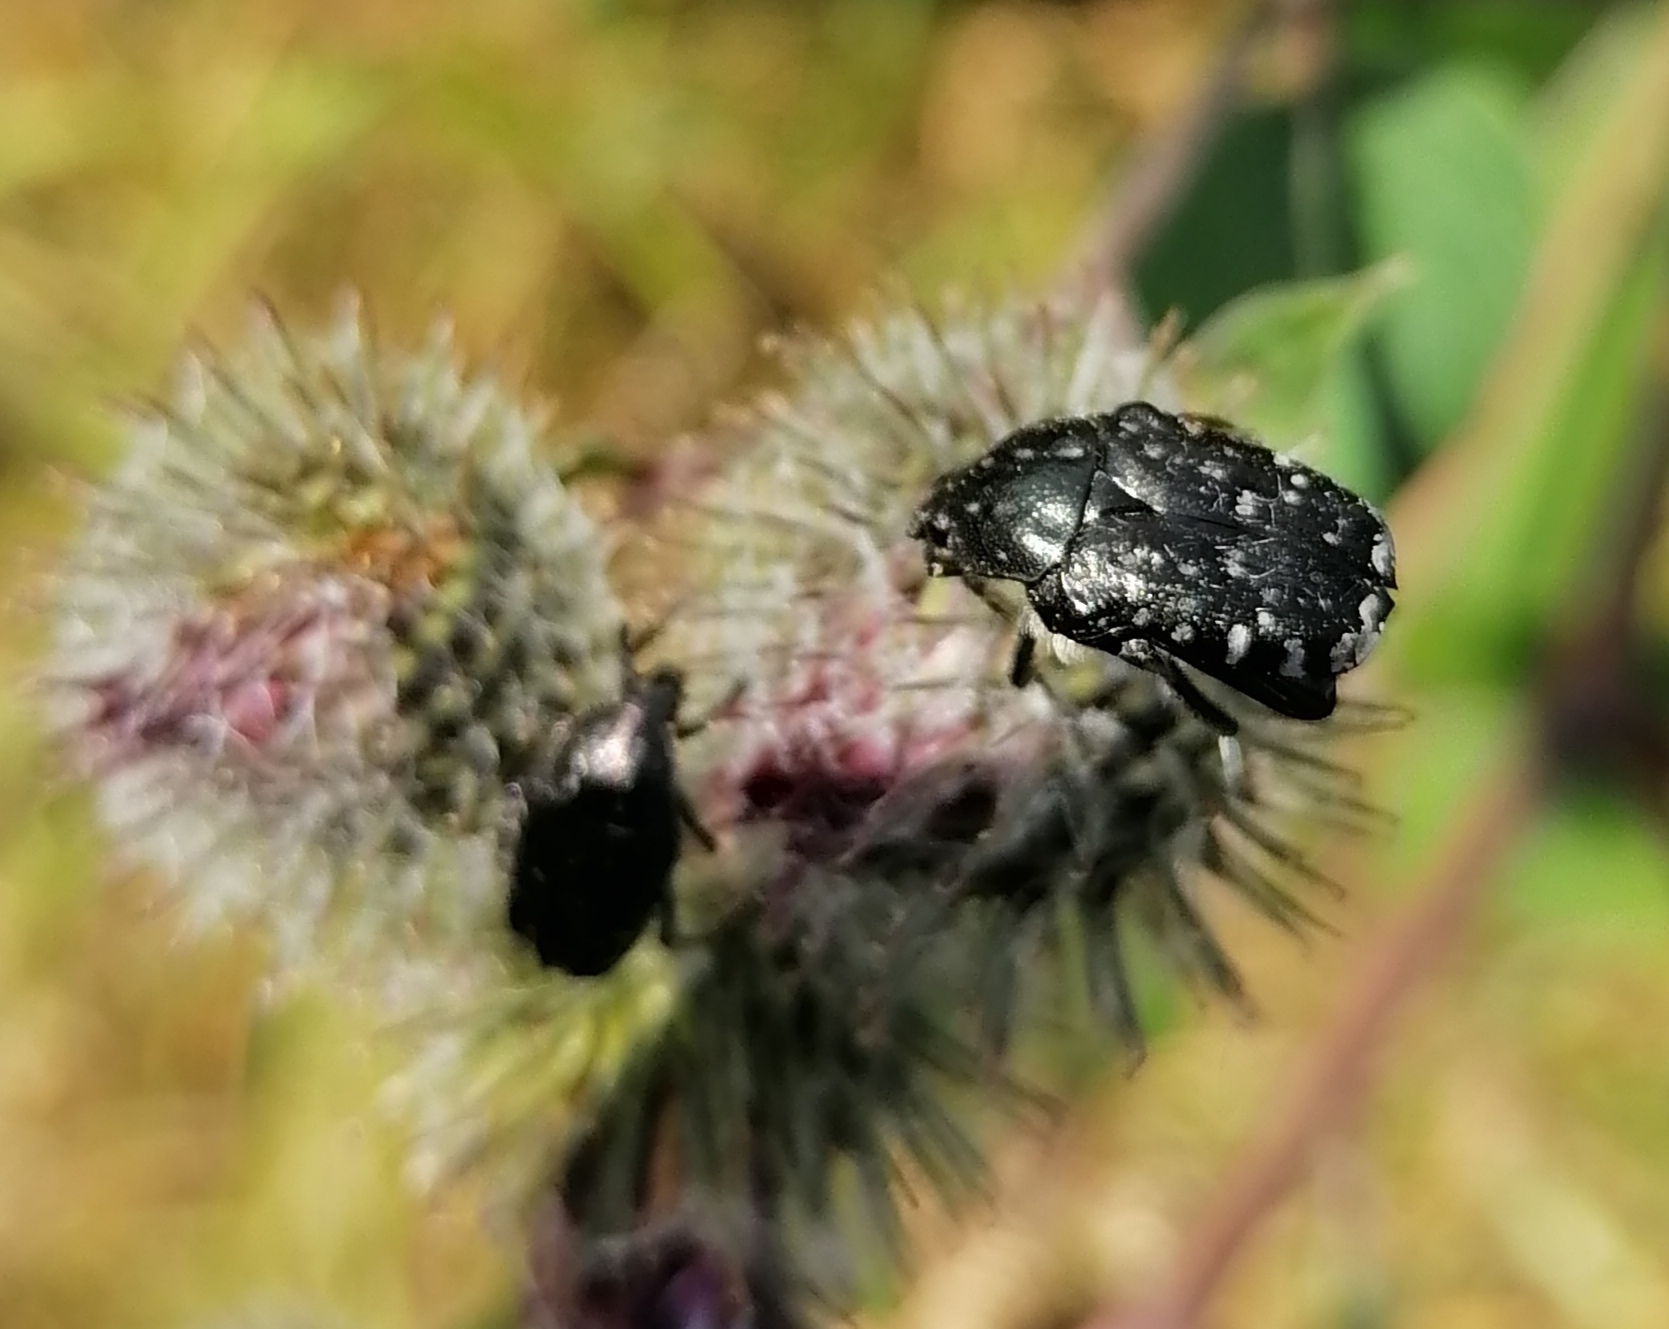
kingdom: Animalia
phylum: Arthropoda
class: Insecta
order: Coleoptera
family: Scarabaeidae
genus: Oxythyrea
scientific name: Oxythyrea funesta
